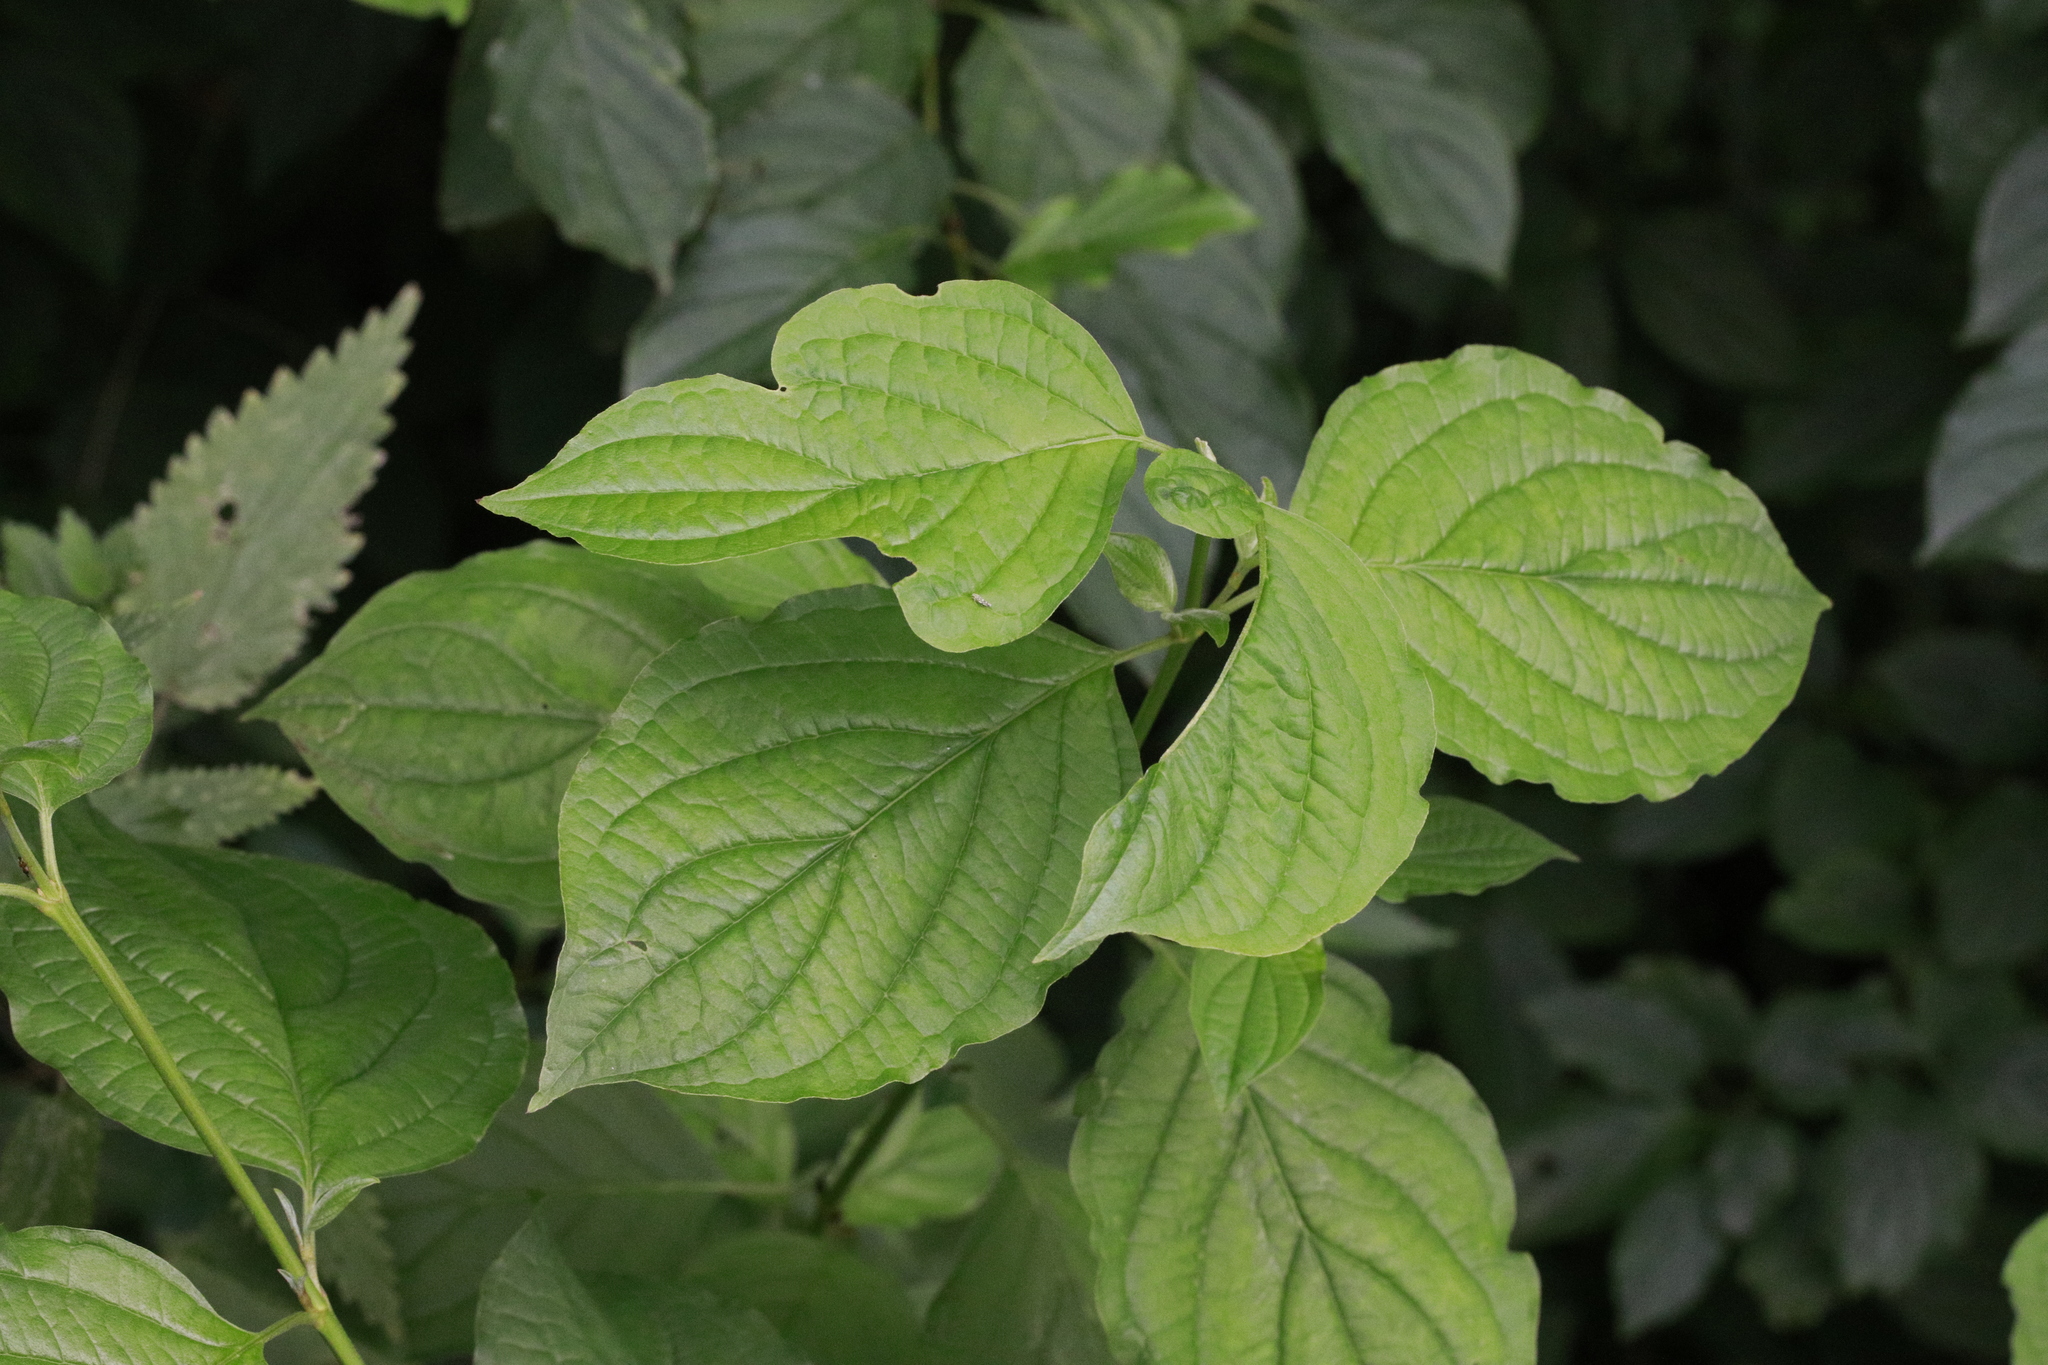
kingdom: Plantae
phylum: Tracheophyta
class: Magnoliopsida
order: Cornales
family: Cornaceae
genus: Cornus
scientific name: Cornus sanguinea
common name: Dogwood
